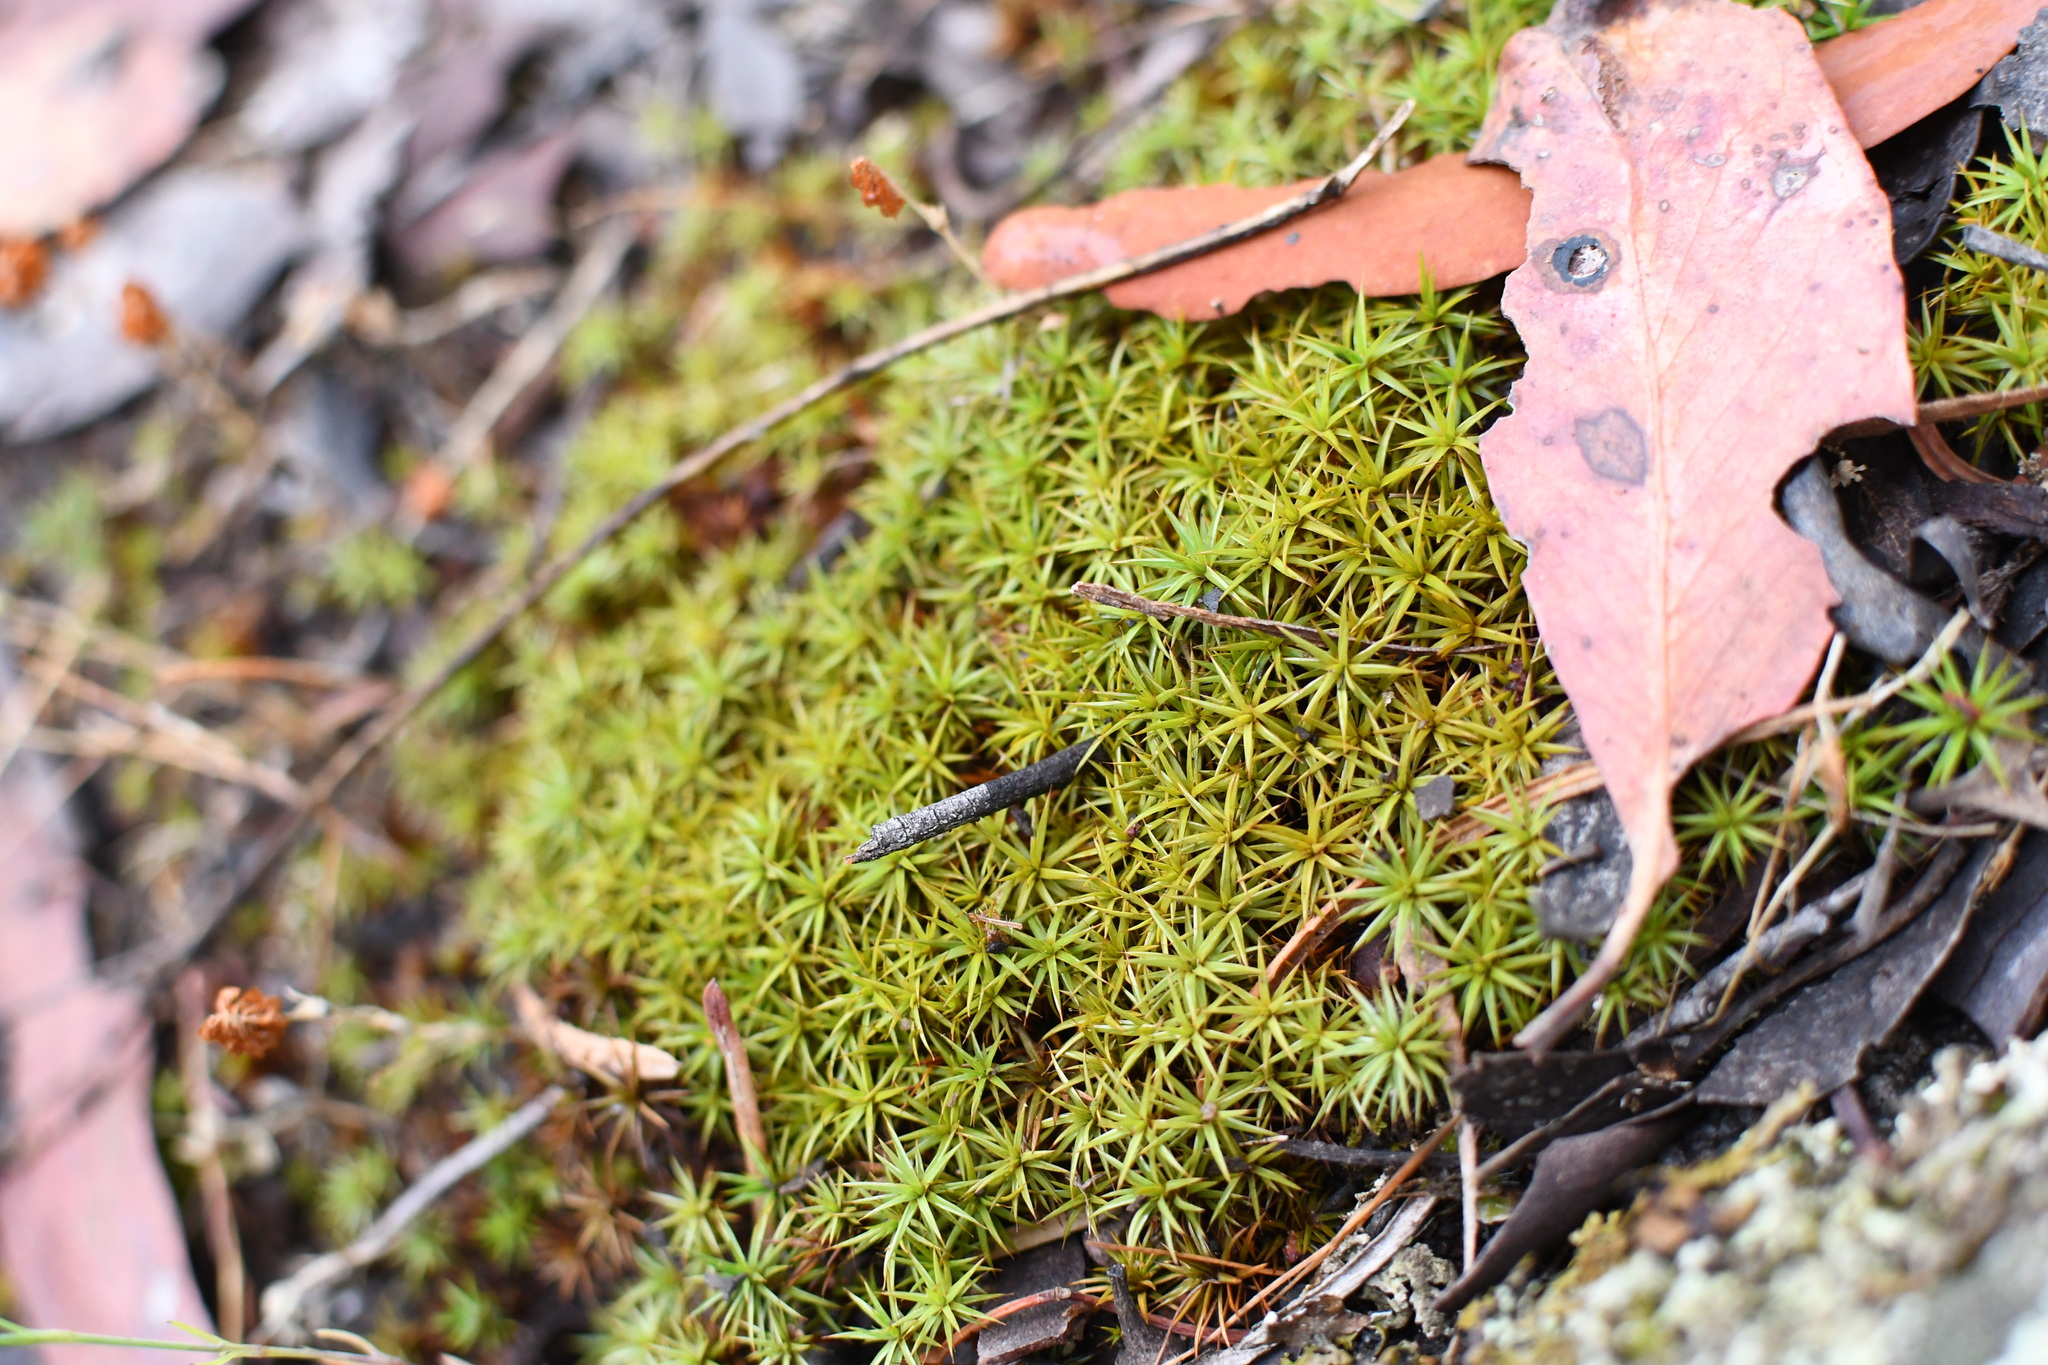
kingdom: Plantae
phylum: Bryophyta
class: Polytrichopsida
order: Polytrichales
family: Polytrichaceae
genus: Polytrichum
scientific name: Polytrichum juniperinum
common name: Juniper haircap moss
